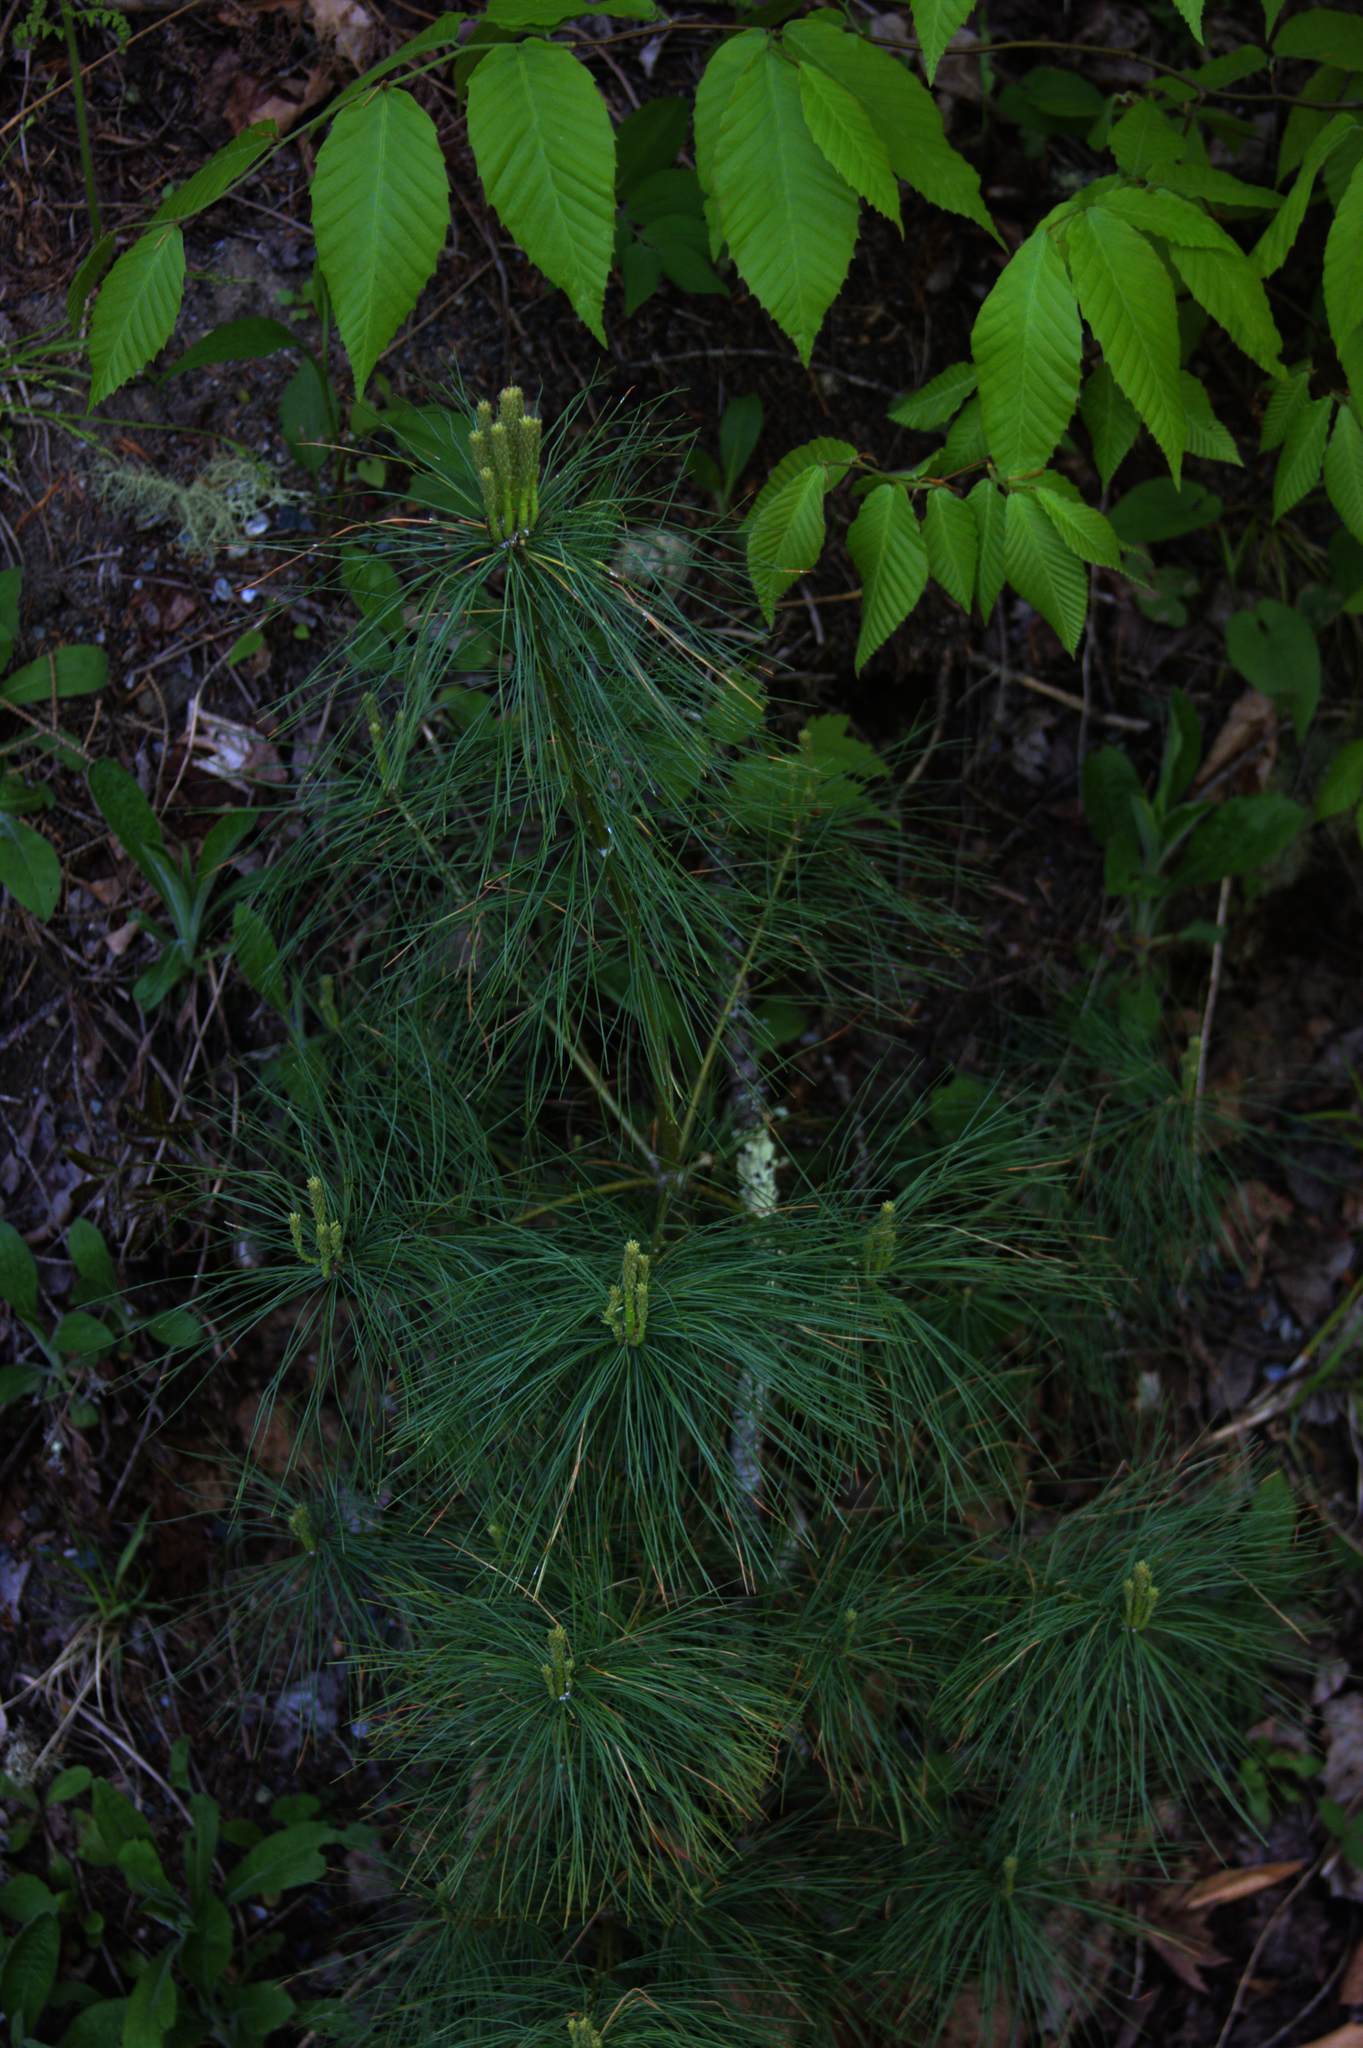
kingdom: Plantae
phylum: Tracheophyta
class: Pinopsida
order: Pinales
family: Pinaceae
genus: Pinus
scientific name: Pinus strobus
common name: Weymouth pine
